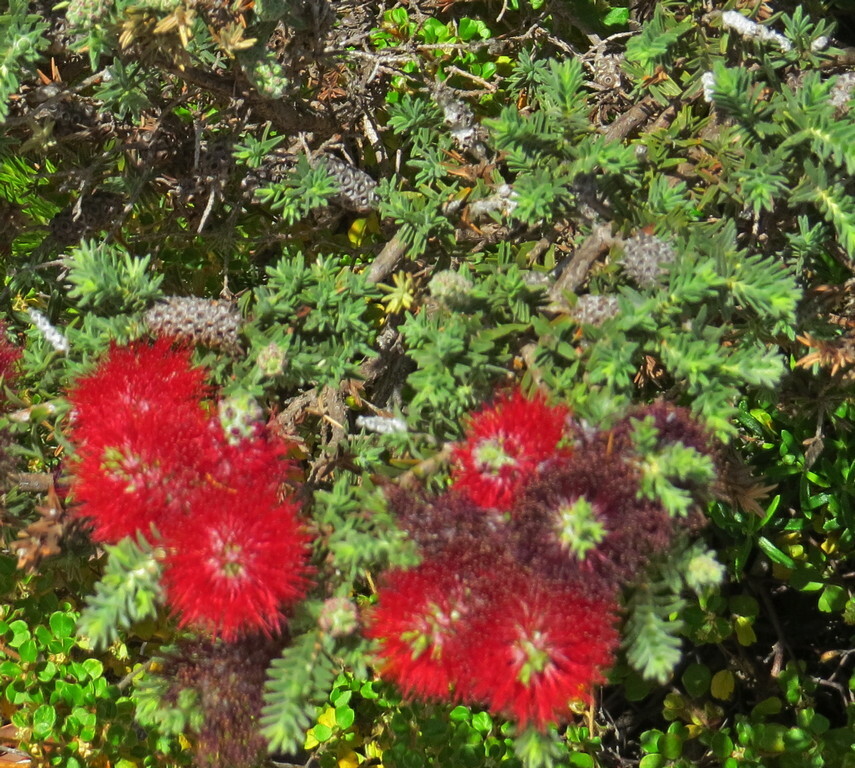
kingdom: Plantae
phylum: Tracheophyta
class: Magnoliopsida
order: Myrtales
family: Myrtaceae
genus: Melaleuca
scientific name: Melaleuca lachnocephala
